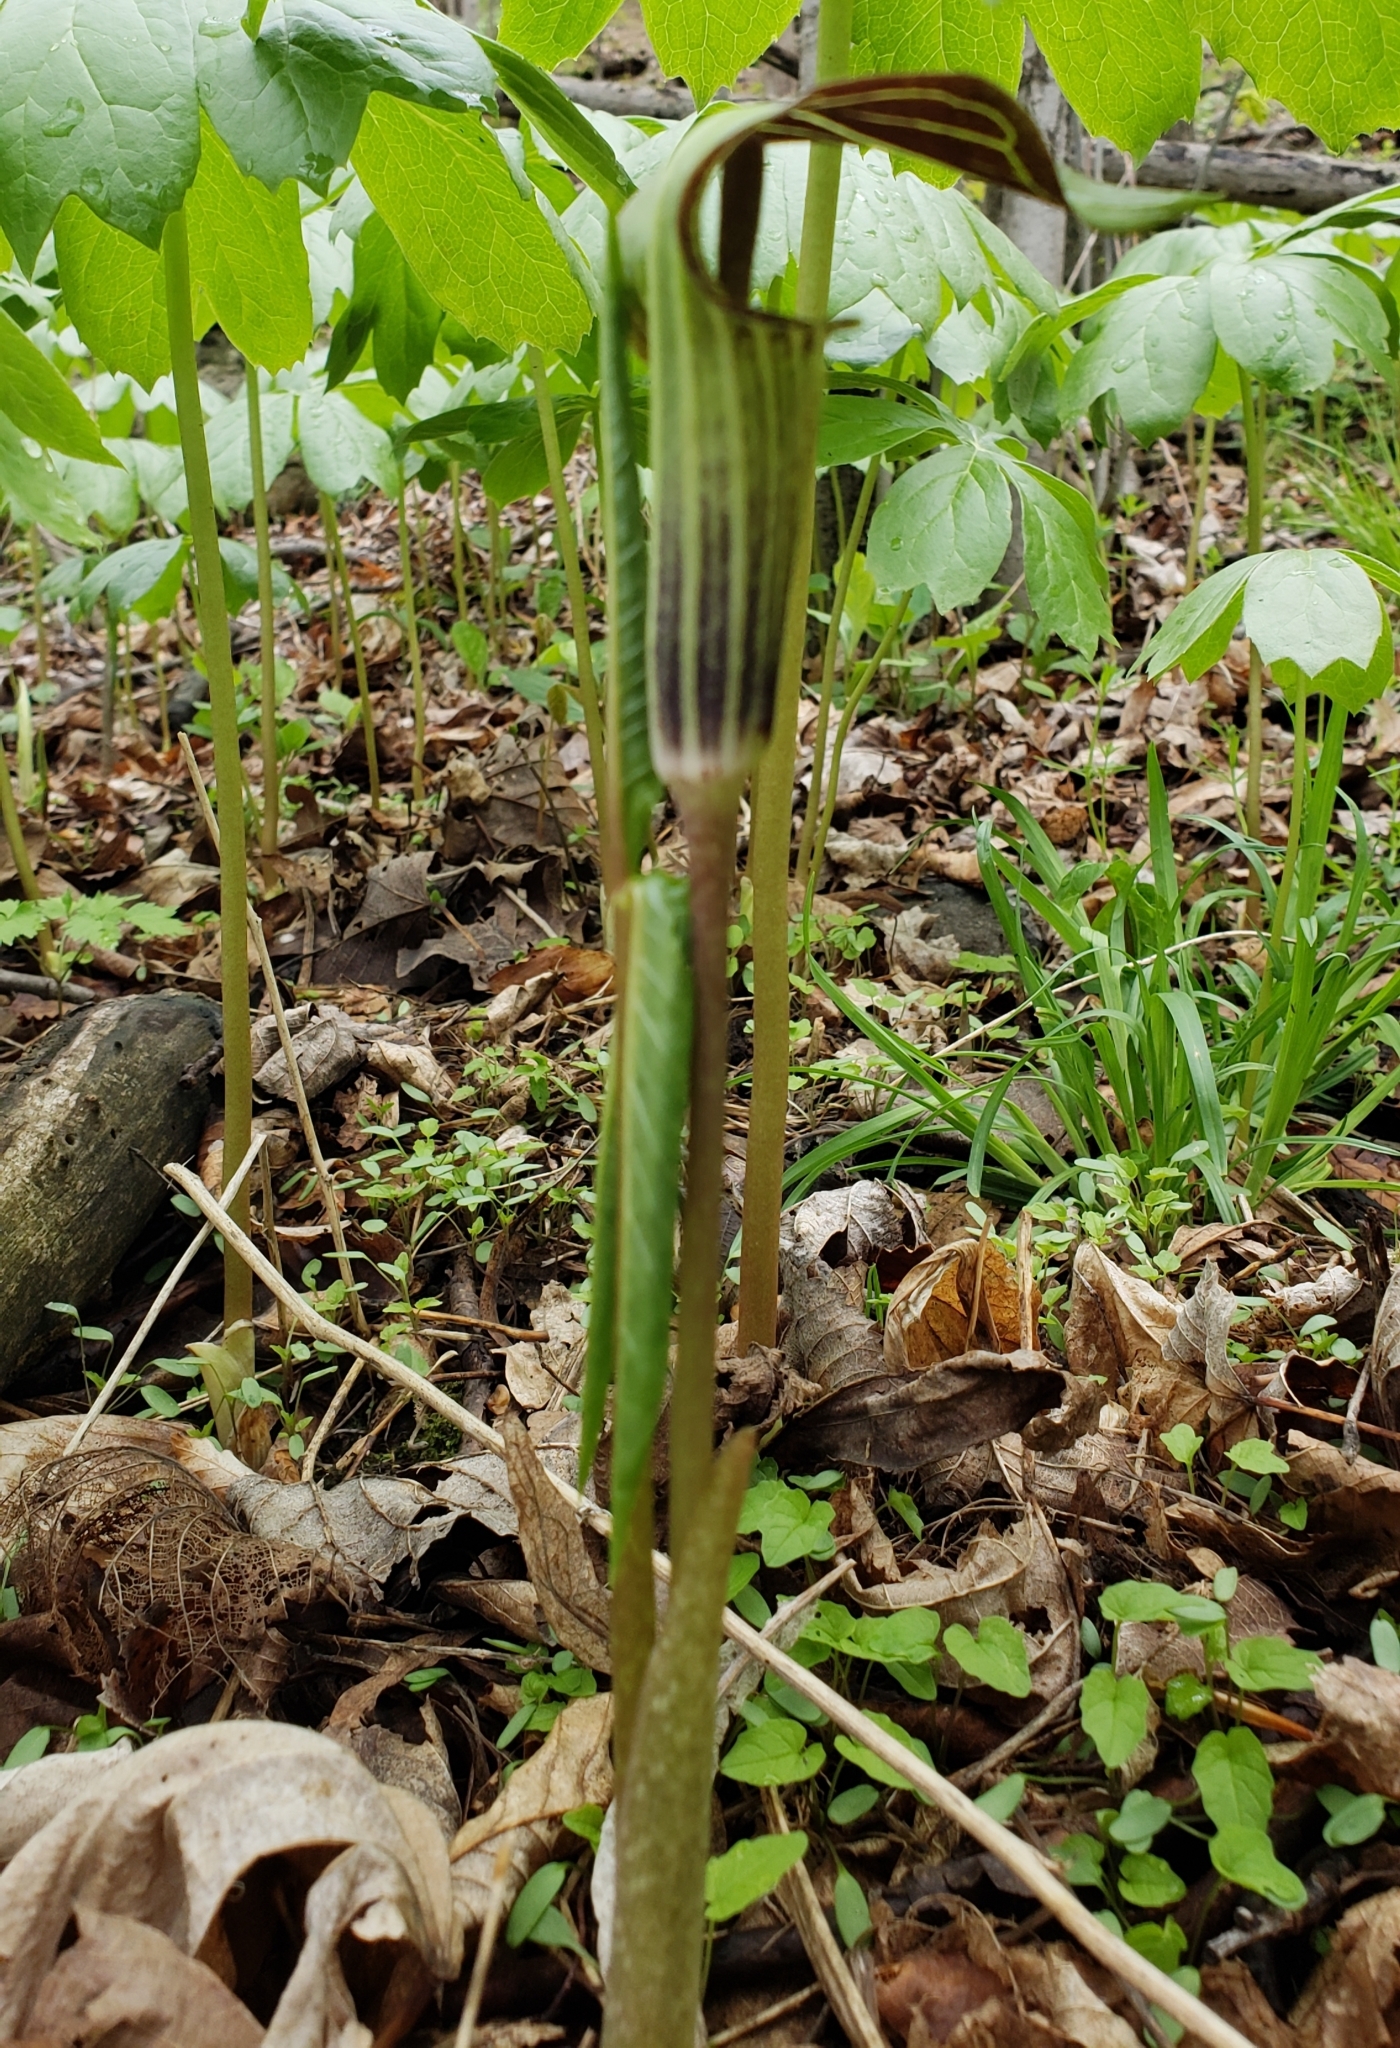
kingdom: Plantae
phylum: Tracheophyta
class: Liliopsida
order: Alismatales
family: Araceae
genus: Arisaema
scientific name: Arisaema triphyllum
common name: Jack-in-the-pulpit
